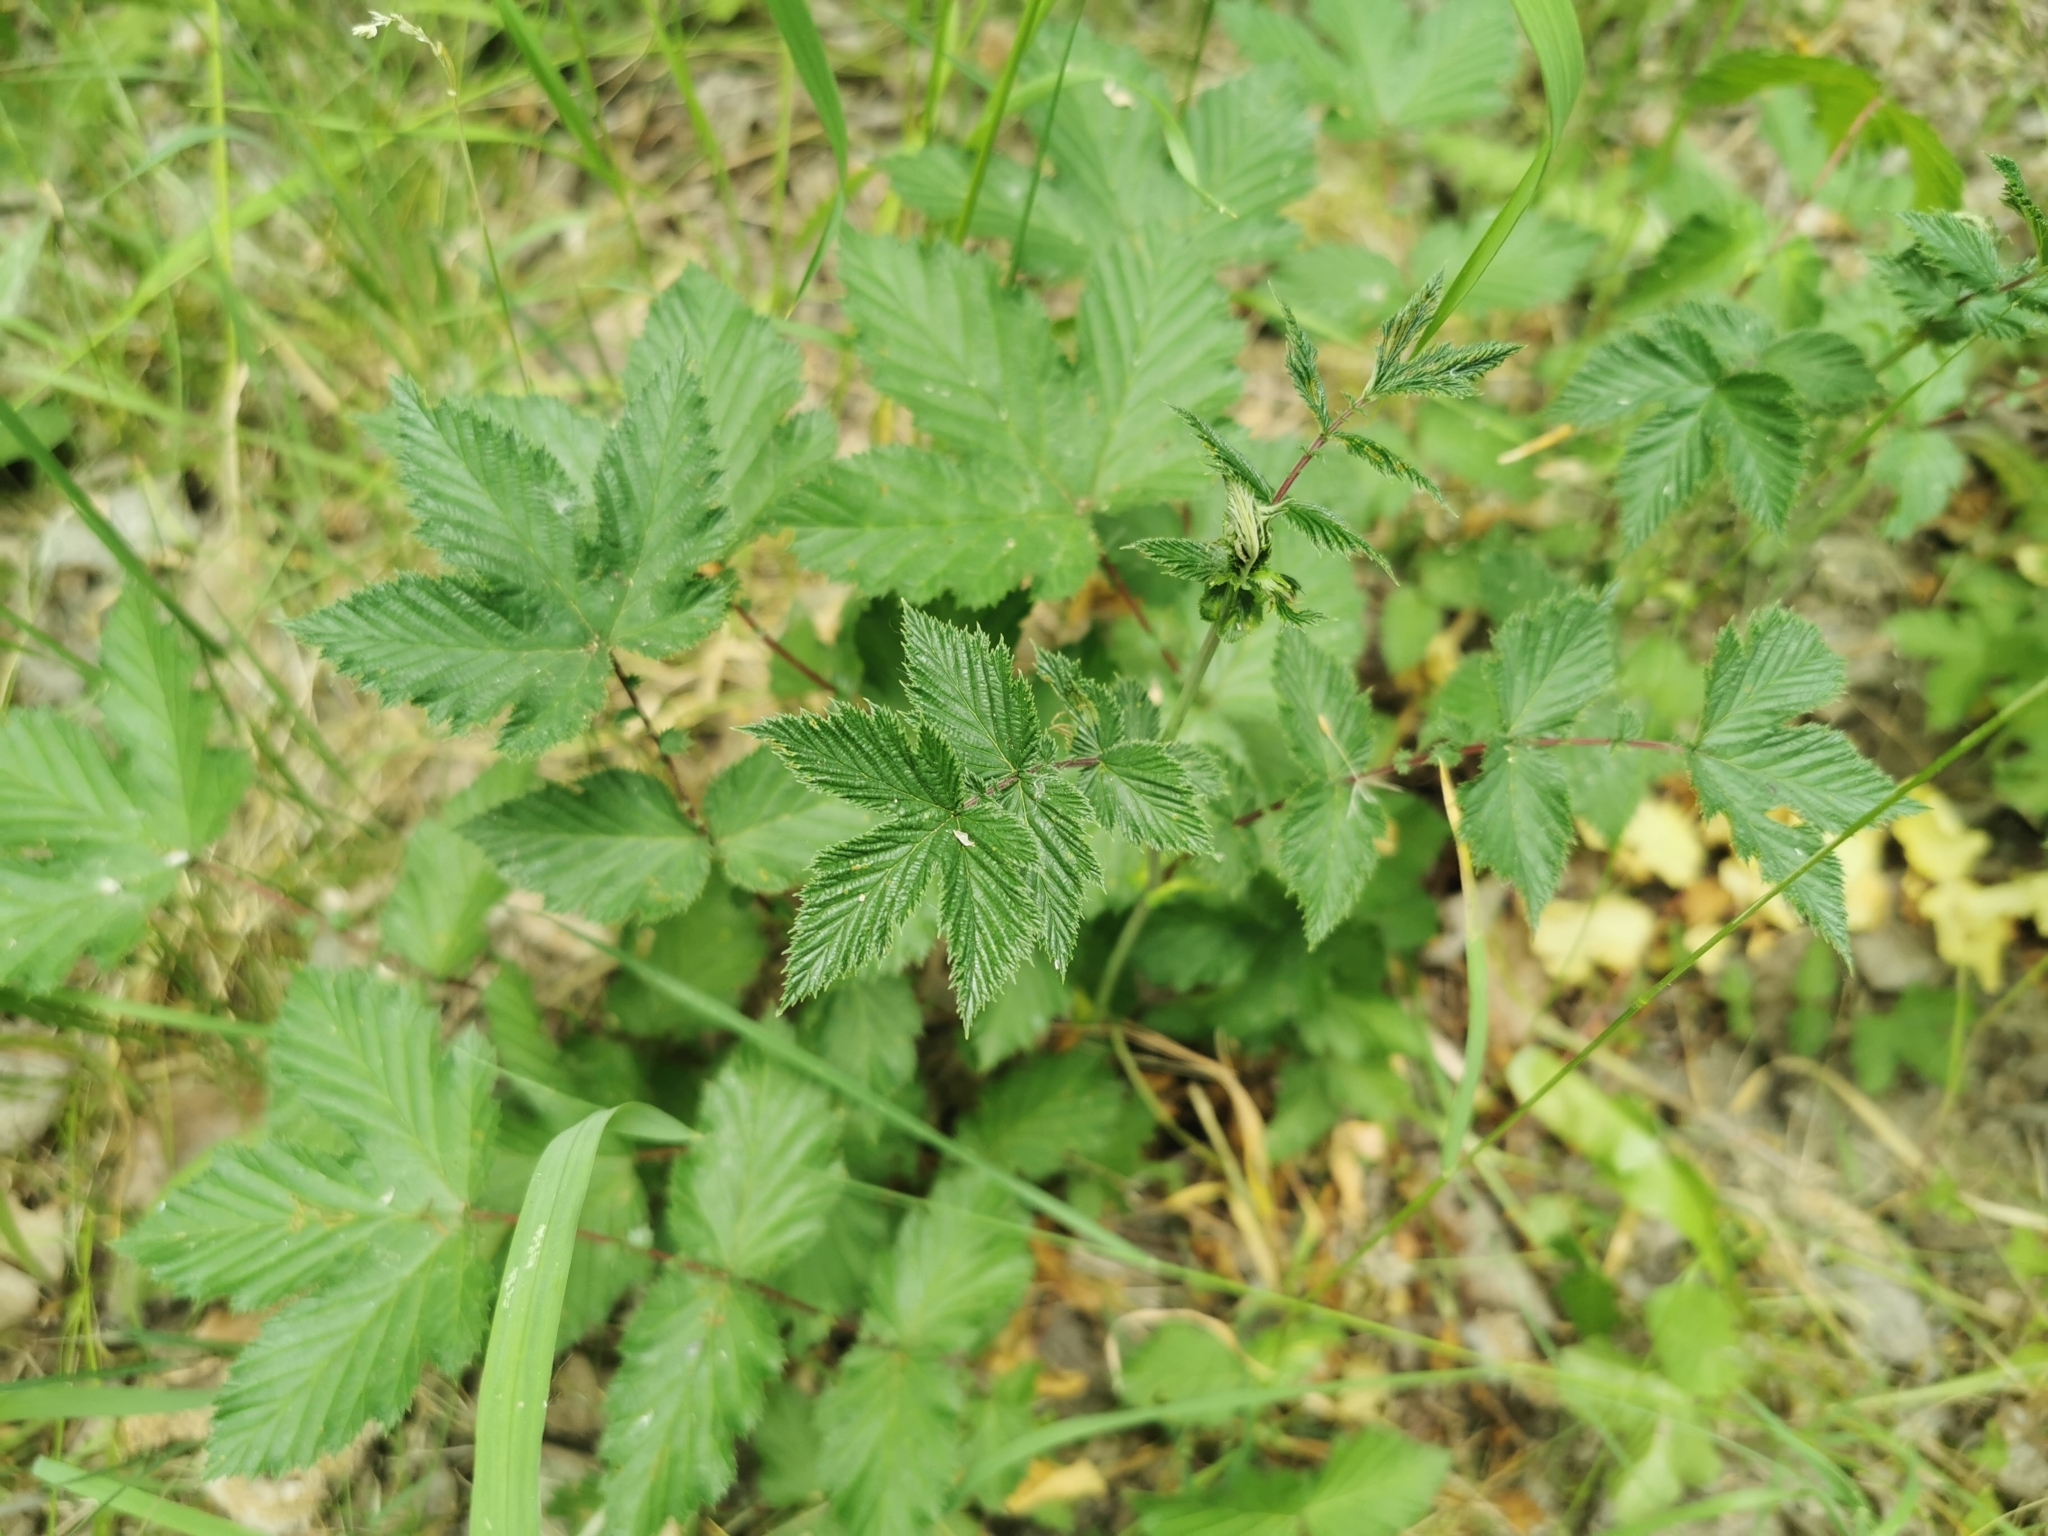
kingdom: Plantae
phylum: Tracheophyta
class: Magnoliopsida
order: Rosales
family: Rosaceae
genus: Filipendula
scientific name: Filipendula ulmaria
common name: Meadowsweet
